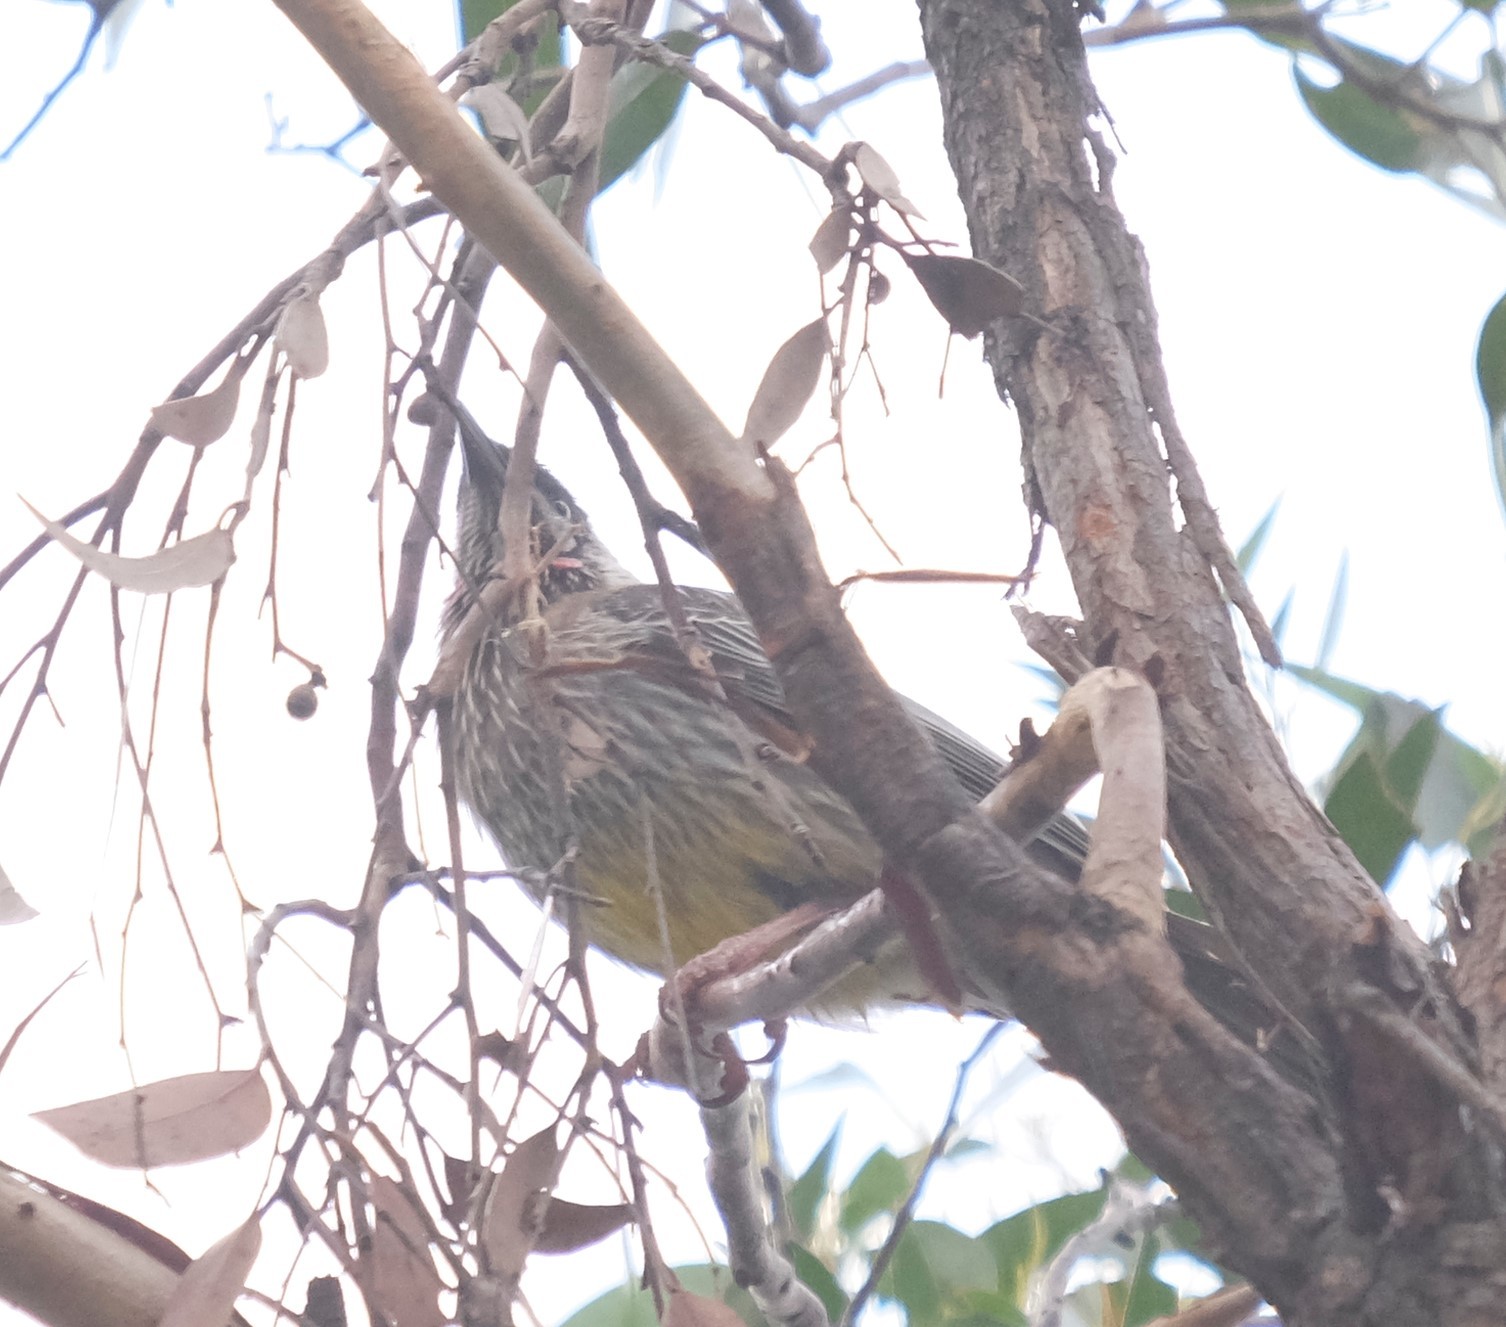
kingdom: Animalia
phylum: Chordata
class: Aves
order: Passeriformes
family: Meliphagidae
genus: Anthochaera
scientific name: Anthochaera carunculata
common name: Red wattlebird
